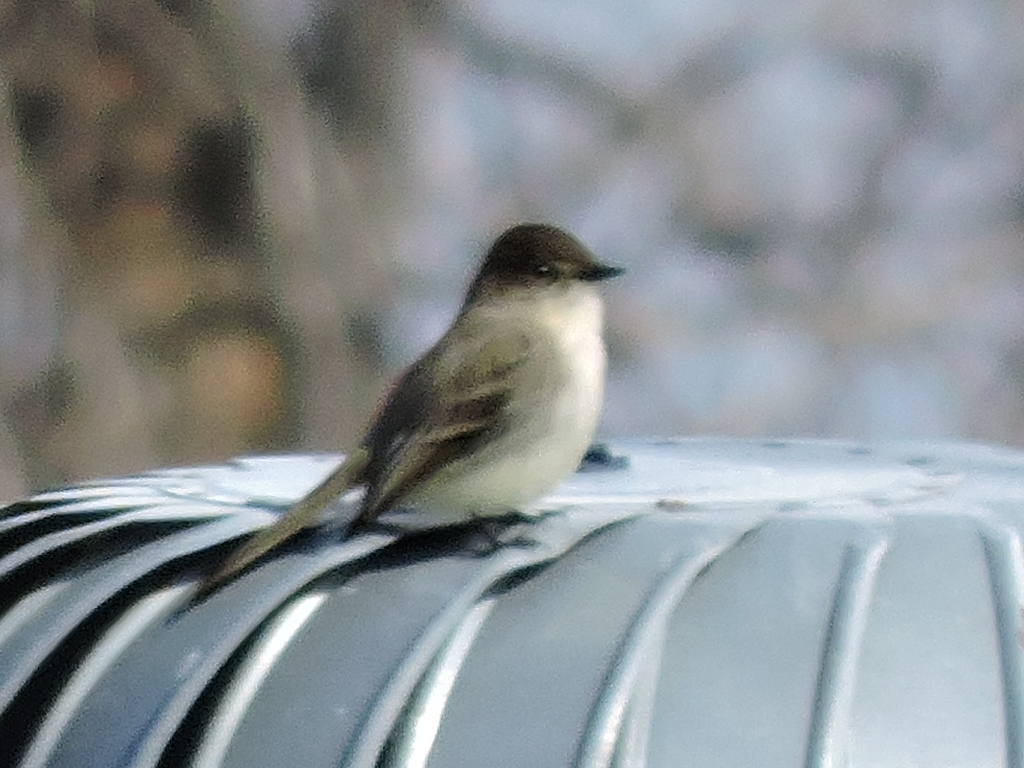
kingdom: Animalia
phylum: Chordata
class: Aves
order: Passeriformes
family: Tyrannidae
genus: Sayornis
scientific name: Sayornis phoebe
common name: Eastern phoebe
